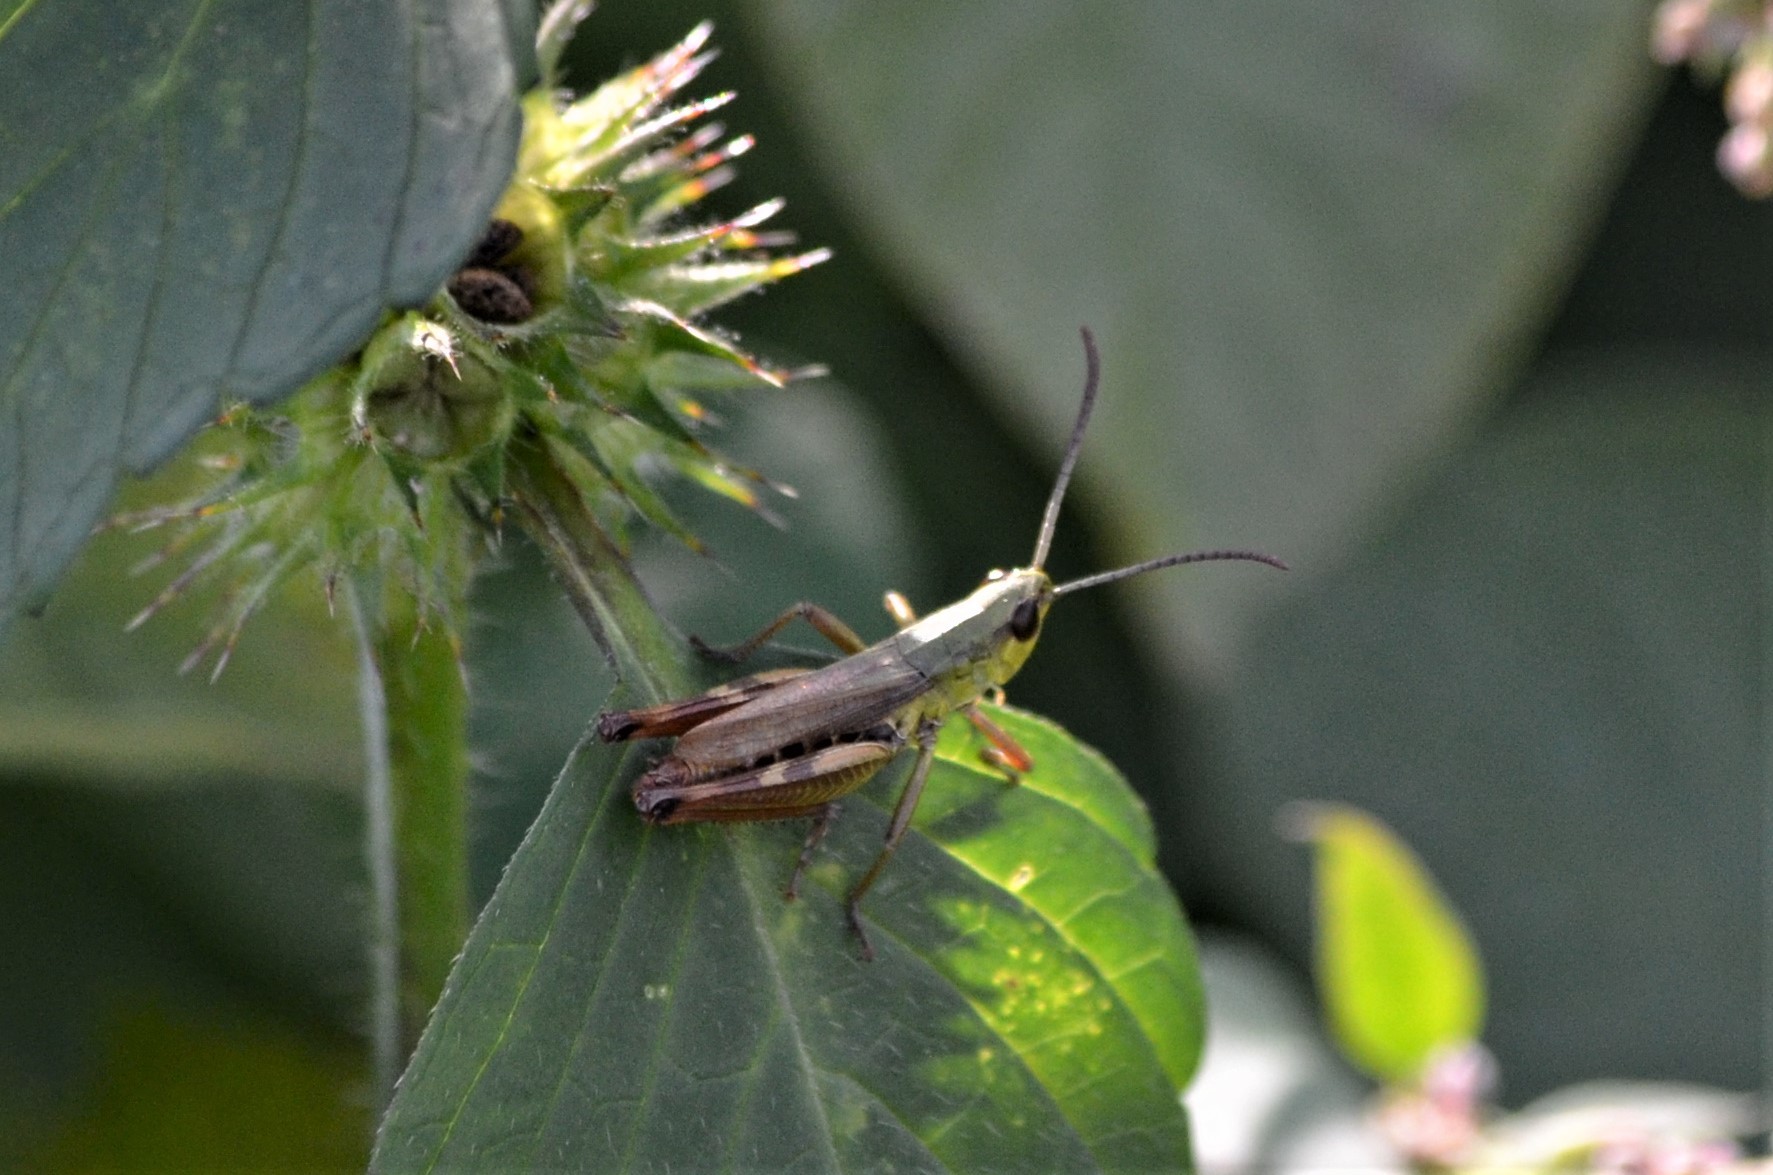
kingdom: Animalia
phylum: Arthropoda
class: Insecta
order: Orthoptera
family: Acrididae
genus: Pseudochorthippus
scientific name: Pseudochorthippus parallelus
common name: Meadow grasshopper
